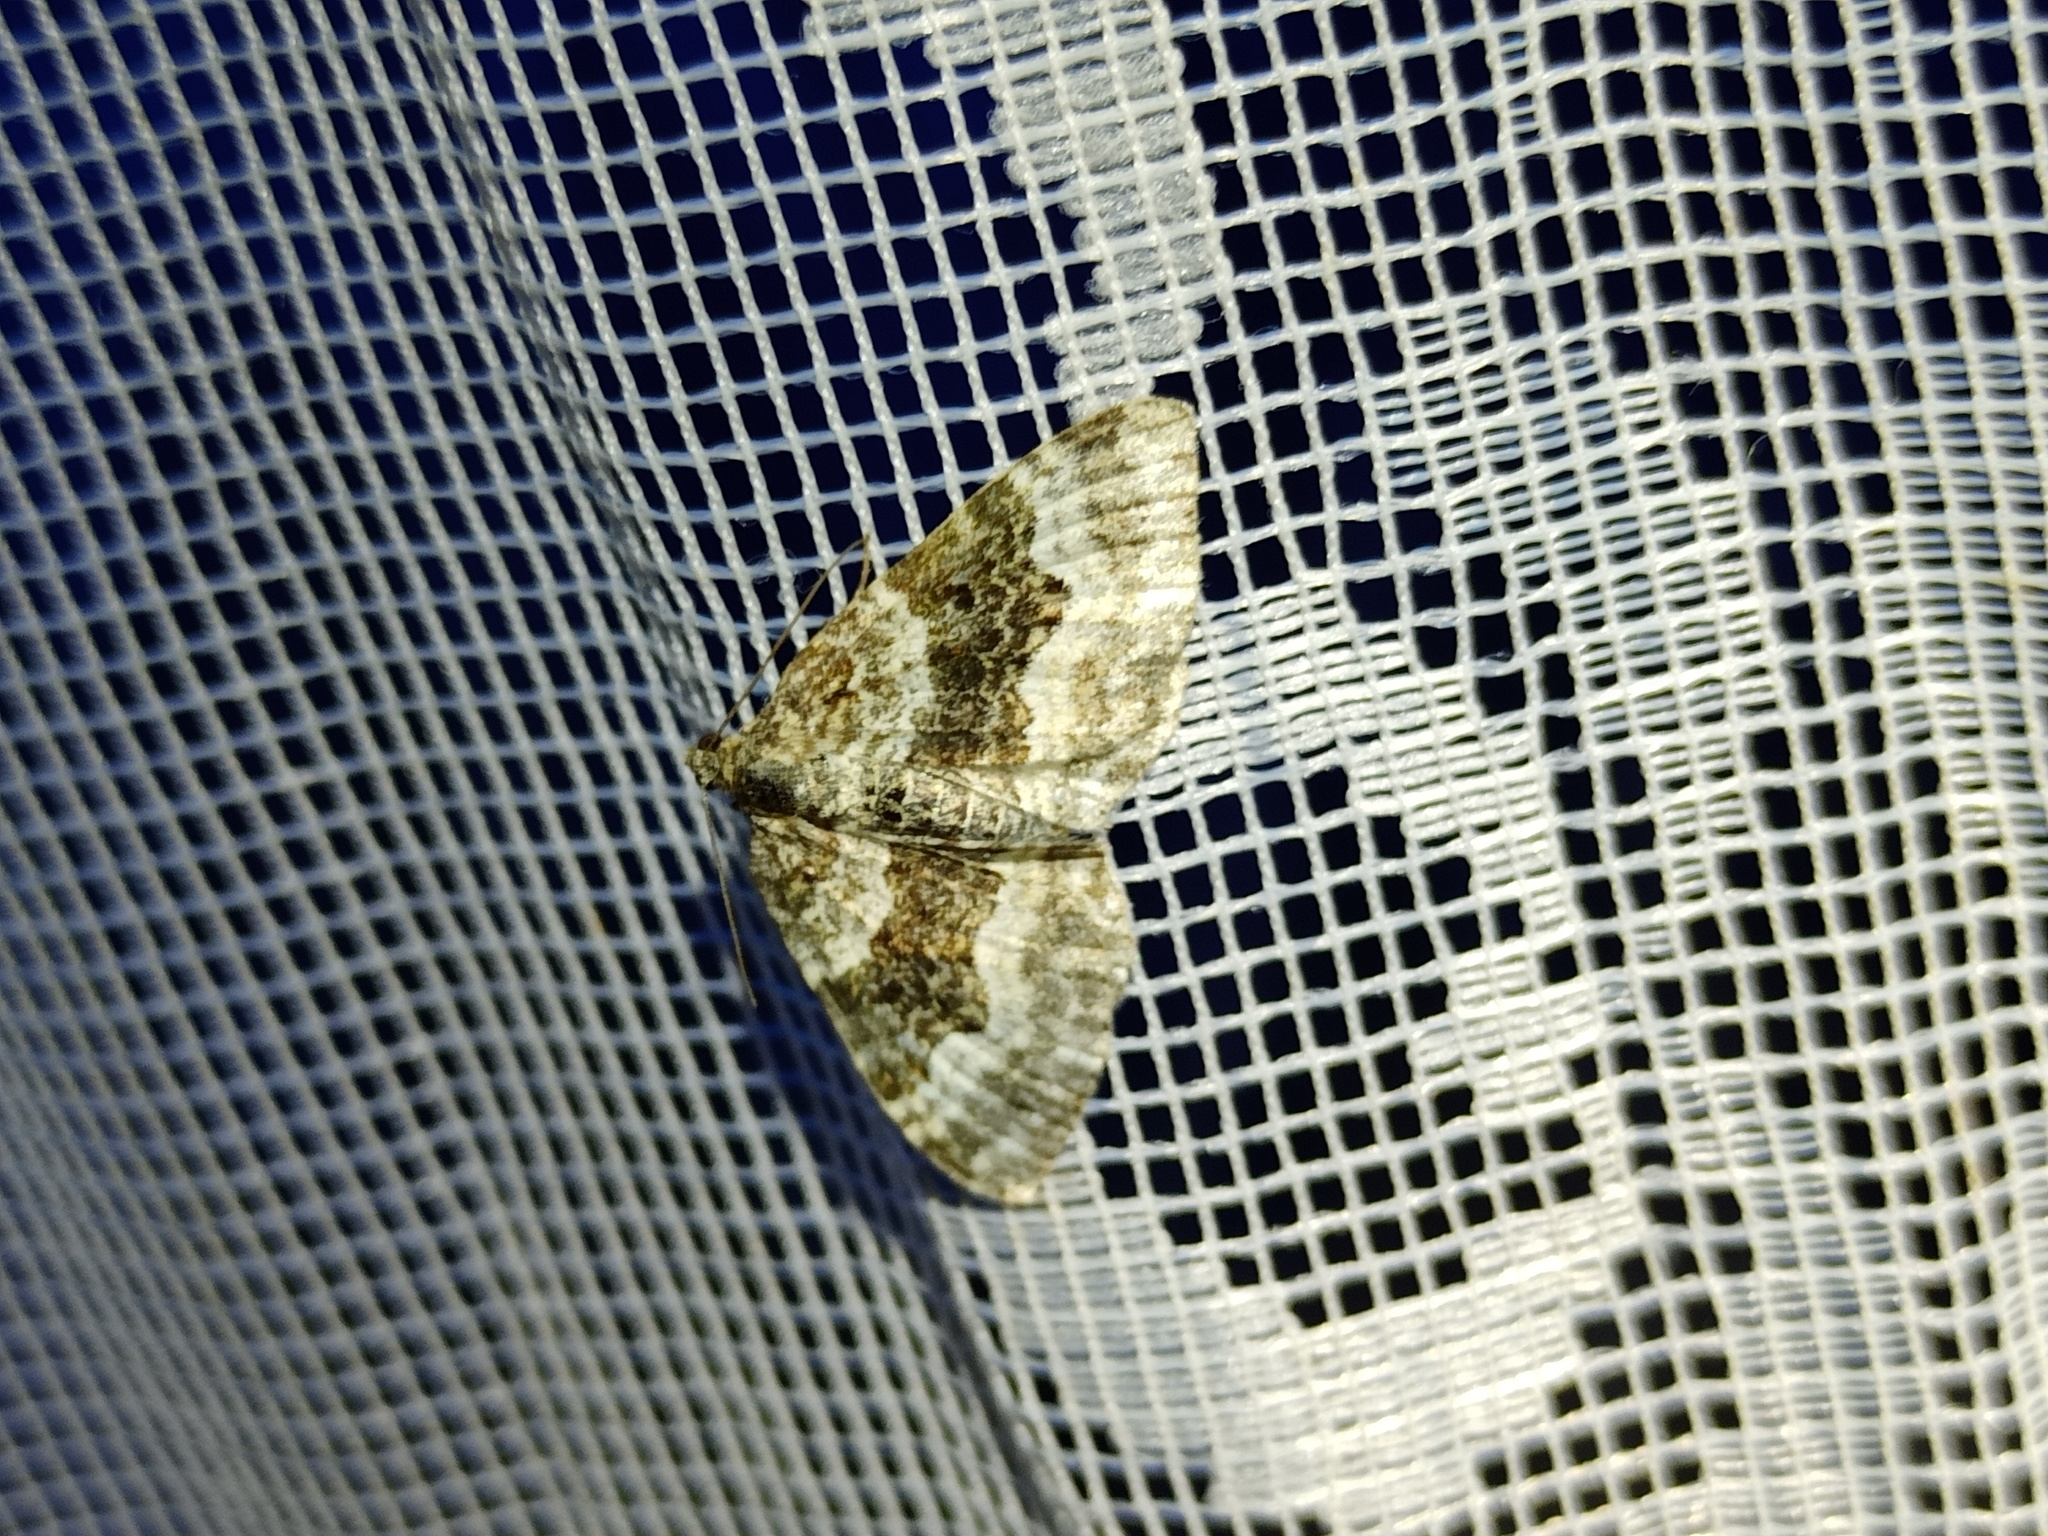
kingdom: Animalia
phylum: Arthropoda
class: Insecta
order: Lepidoptera
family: Geometridae
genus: Epirrhoe
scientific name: Epirrhoe alternata
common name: Common carpet
